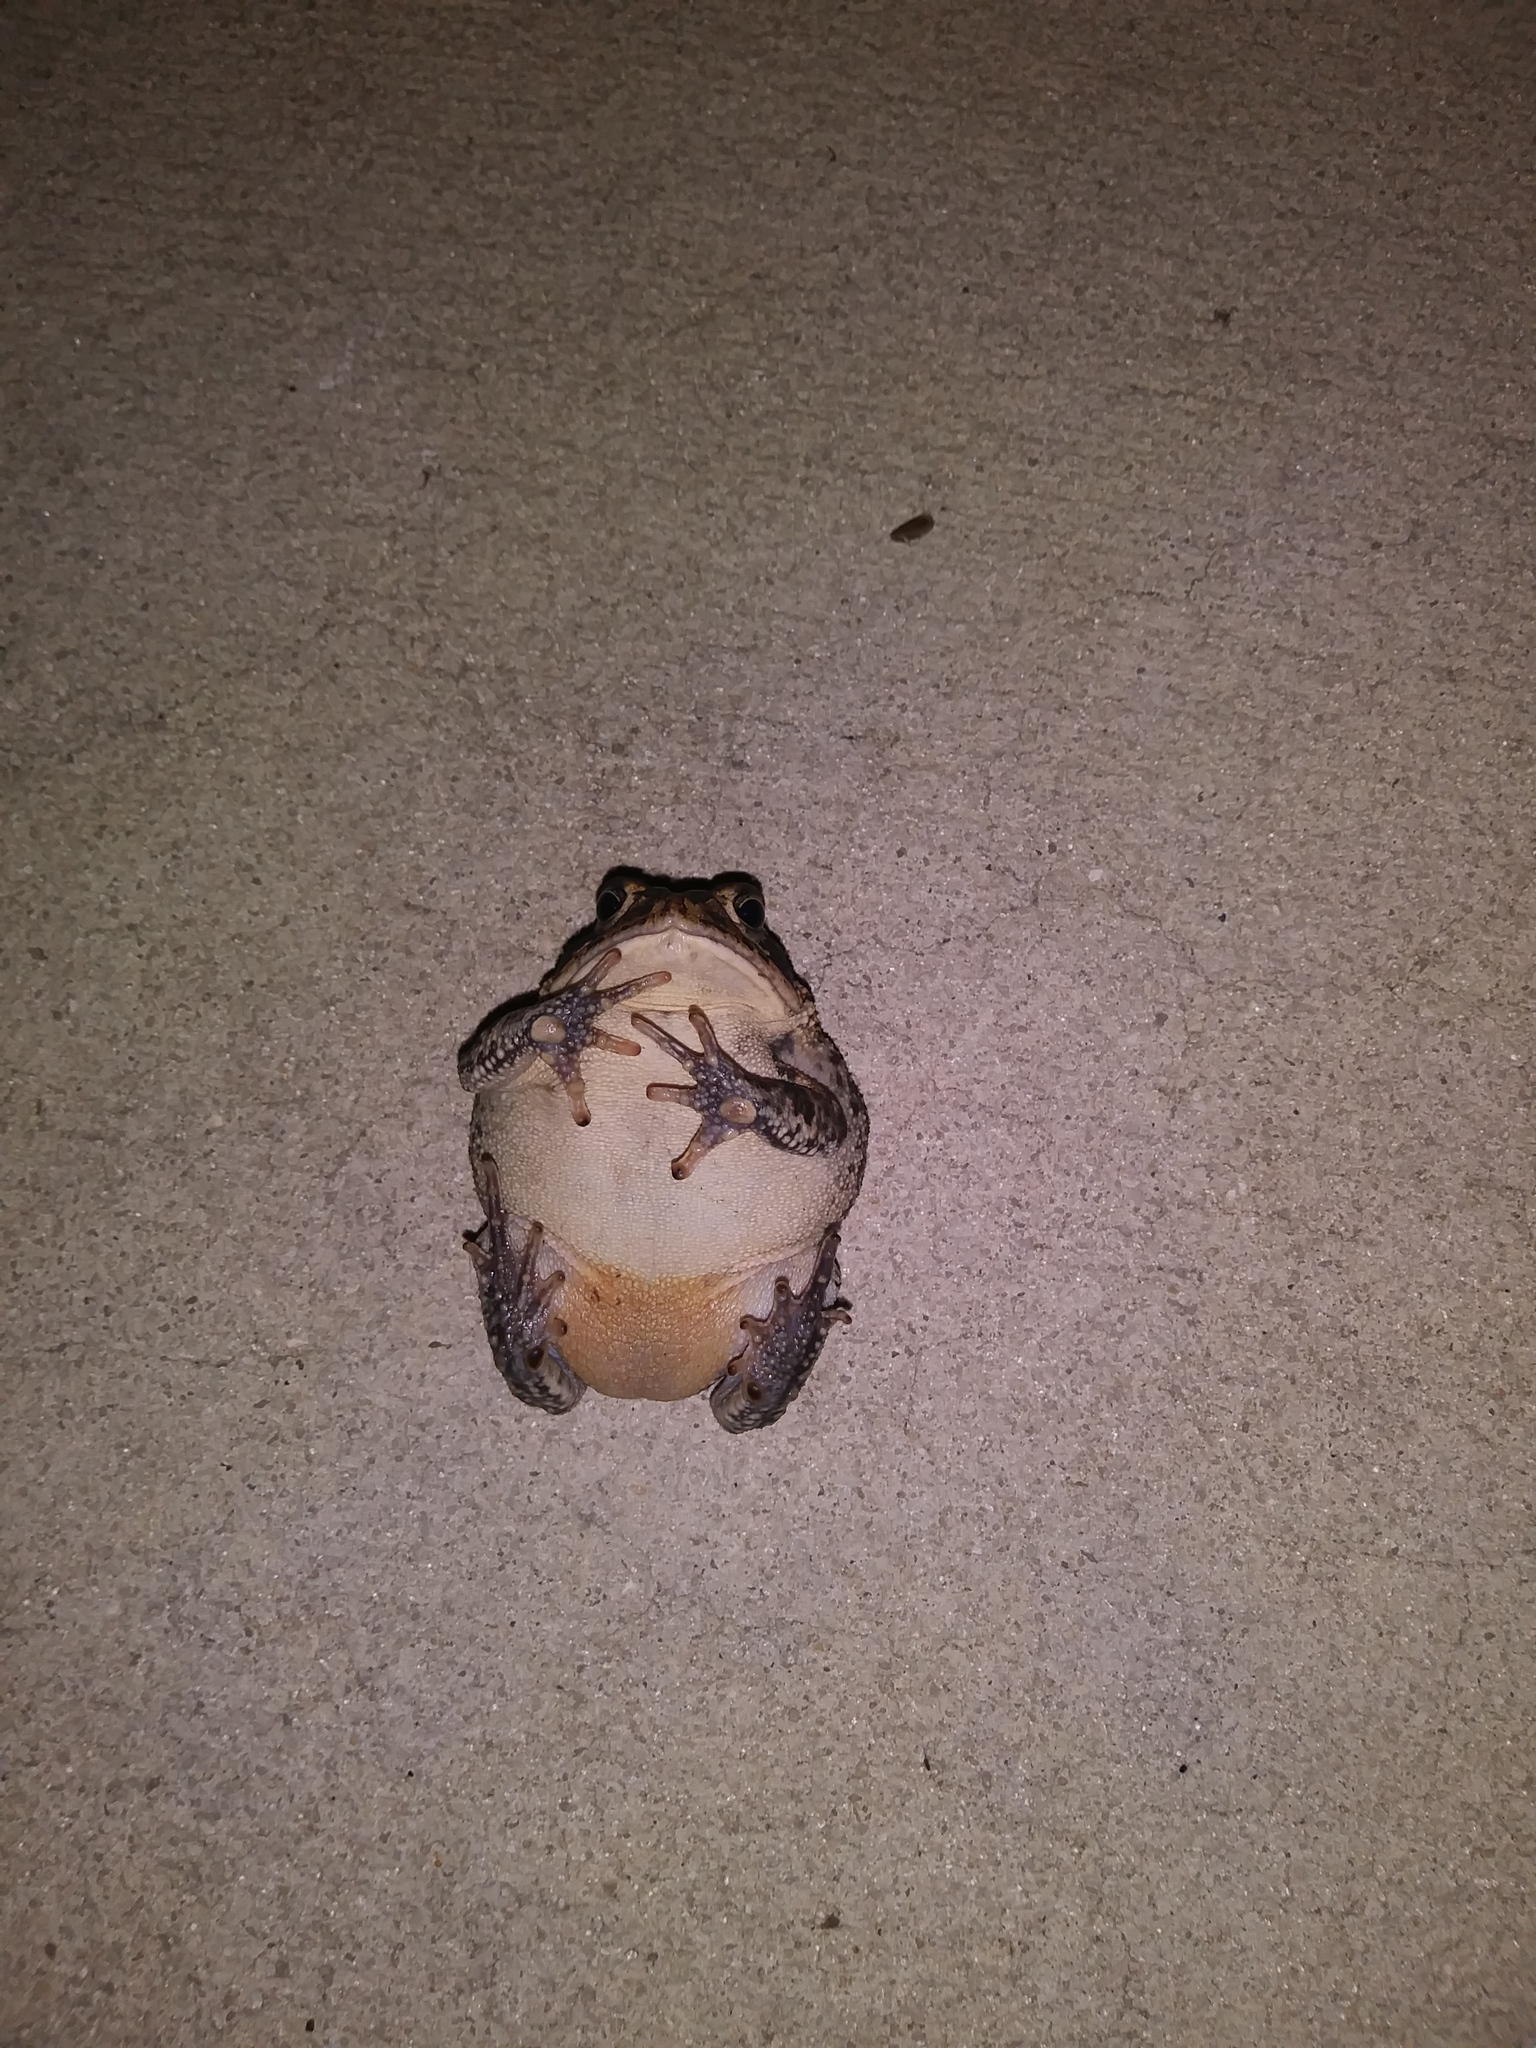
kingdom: Animalia
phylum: Chordata
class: Amphibia
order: Anura
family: Bufonidae
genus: Anaxyrus
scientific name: Anaxyrus terrestris
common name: Southern toad
